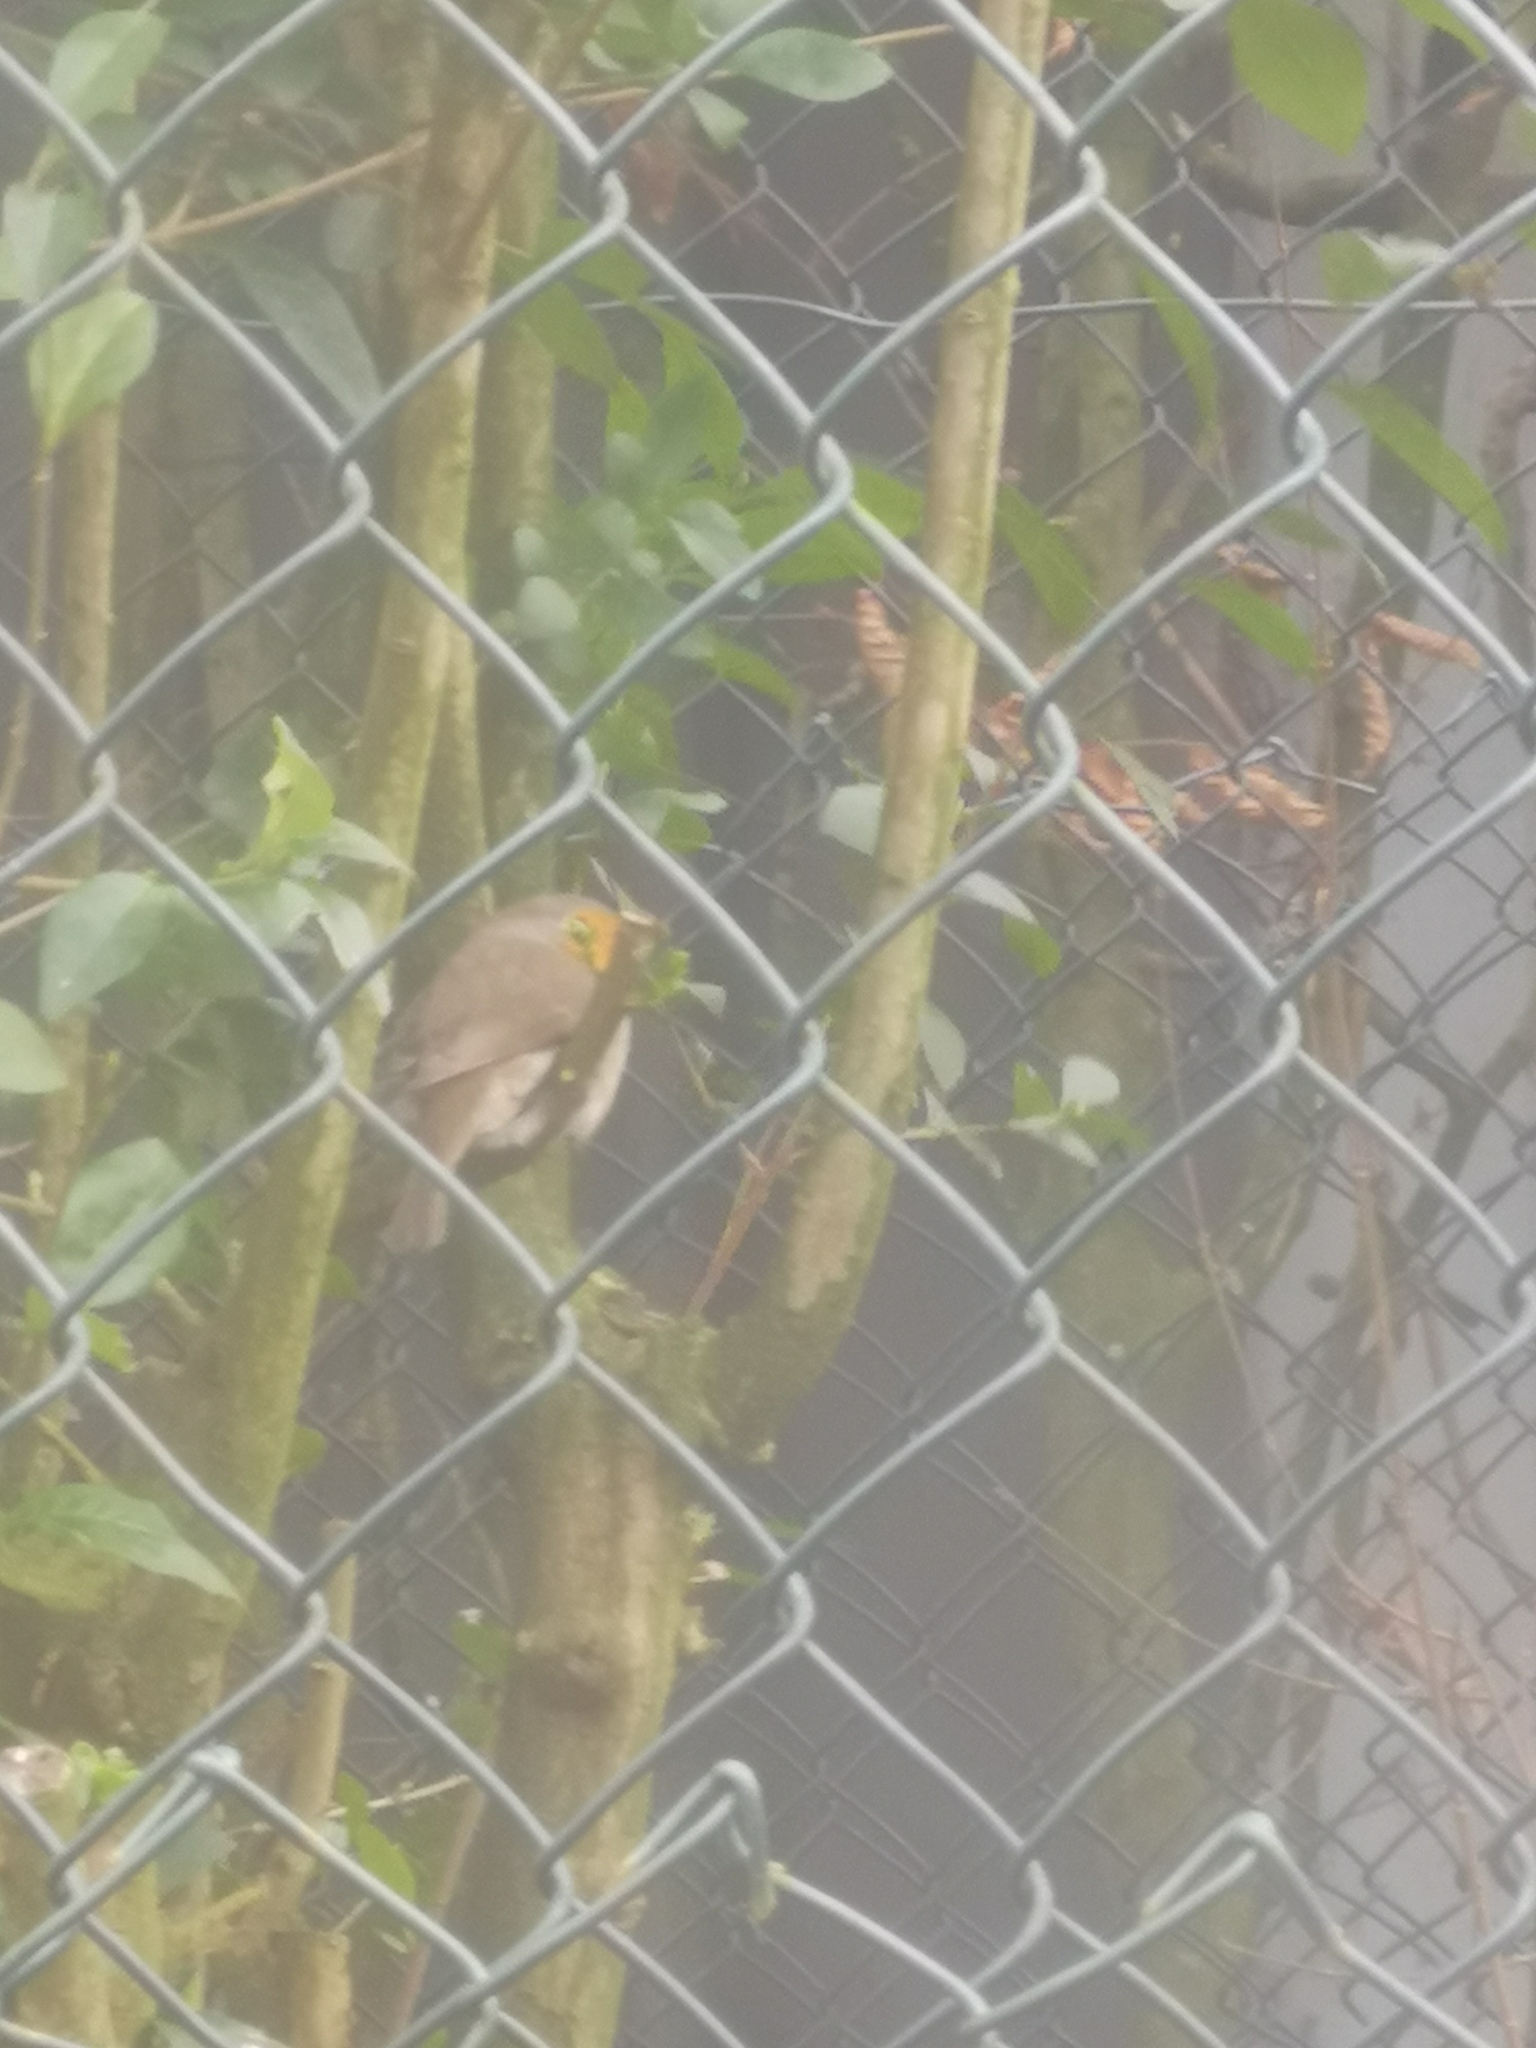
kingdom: Animalia
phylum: Chordata
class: Aves
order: Passeriformes
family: Muscicapidae
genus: Erithacus
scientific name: Erithacus rubecula
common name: European robin
